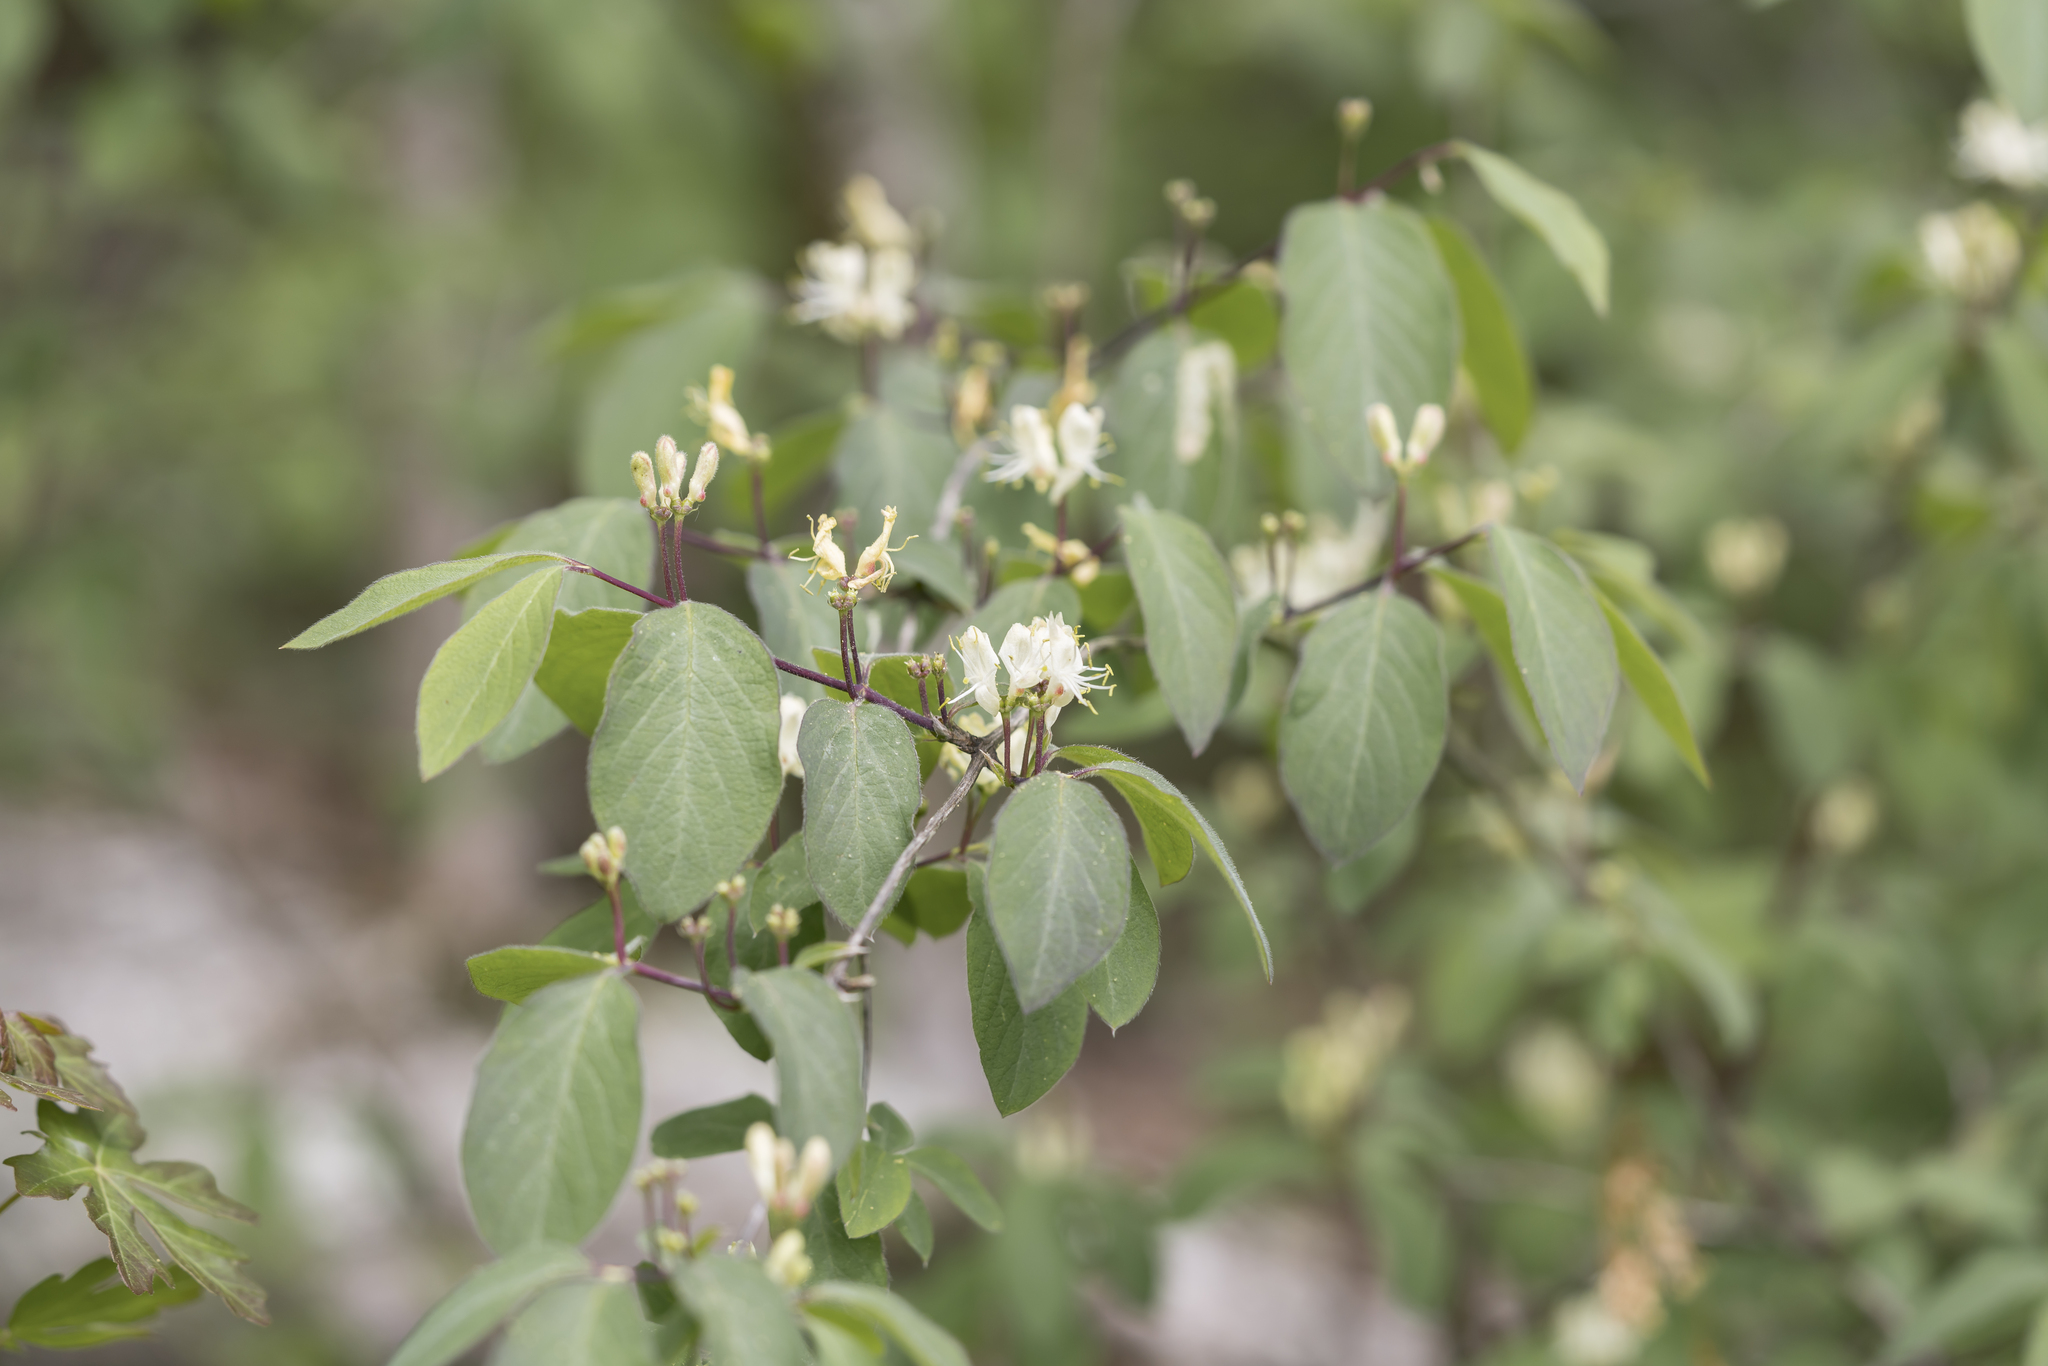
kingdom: Plantae
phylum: Tracheophyta
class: Magnoliopsida
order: Dipsacales
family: Caprifoliaceae
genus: Lonicera
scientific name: Lonicera xylosteum
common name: Fly honeysuckle
